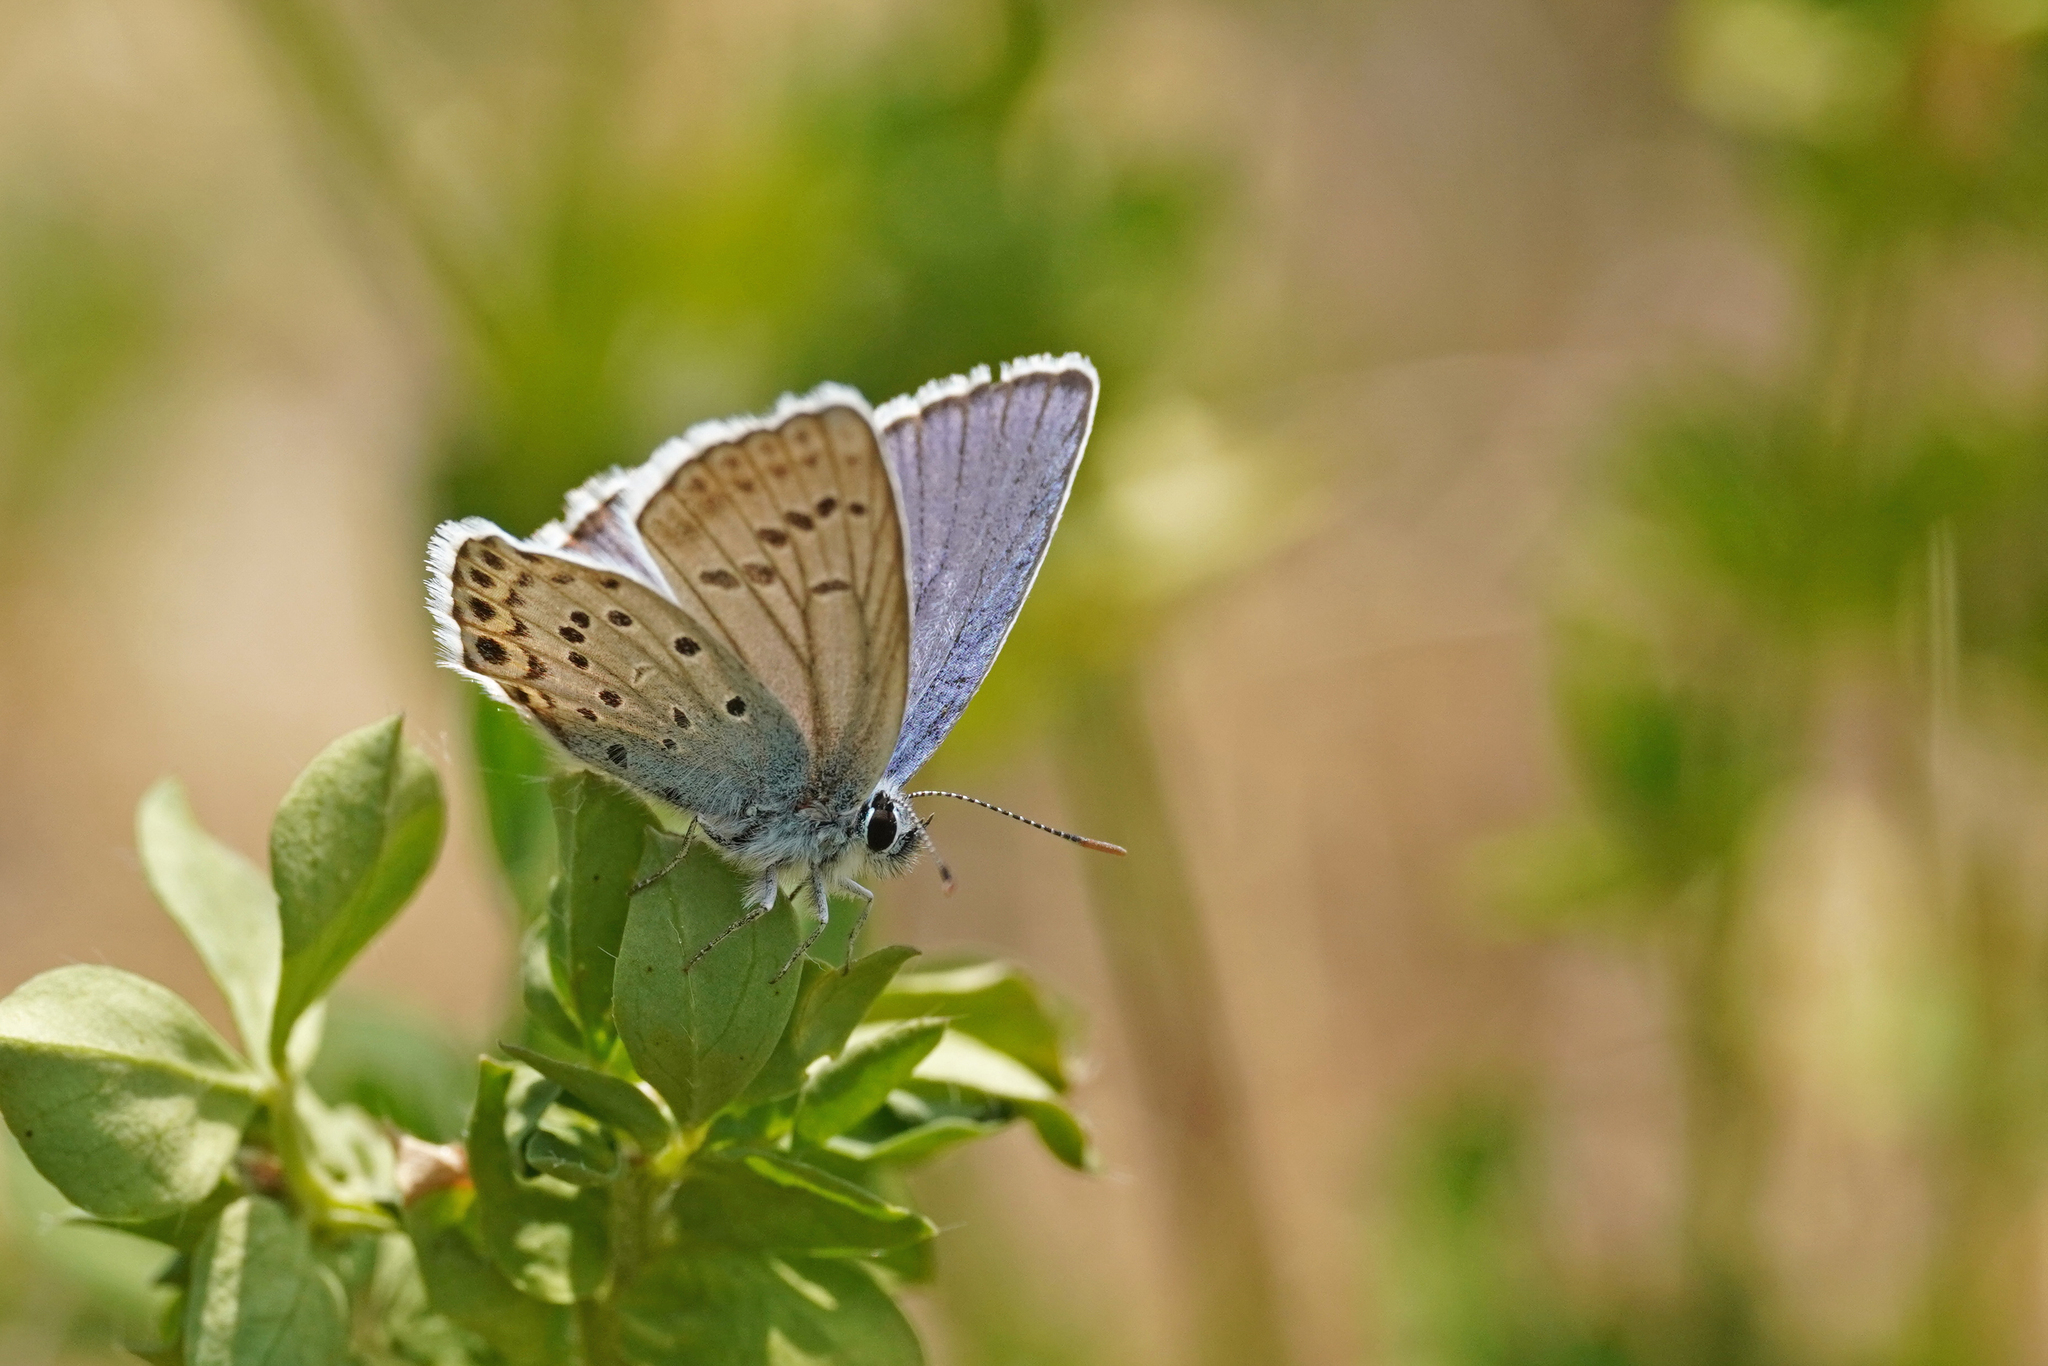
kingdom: Animalia
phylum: Arthropoda
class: Insecta
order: Lepidoptera
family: Lycaenidae
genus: Lycaeides
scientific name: Lycaeides idas
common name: Northern blue
